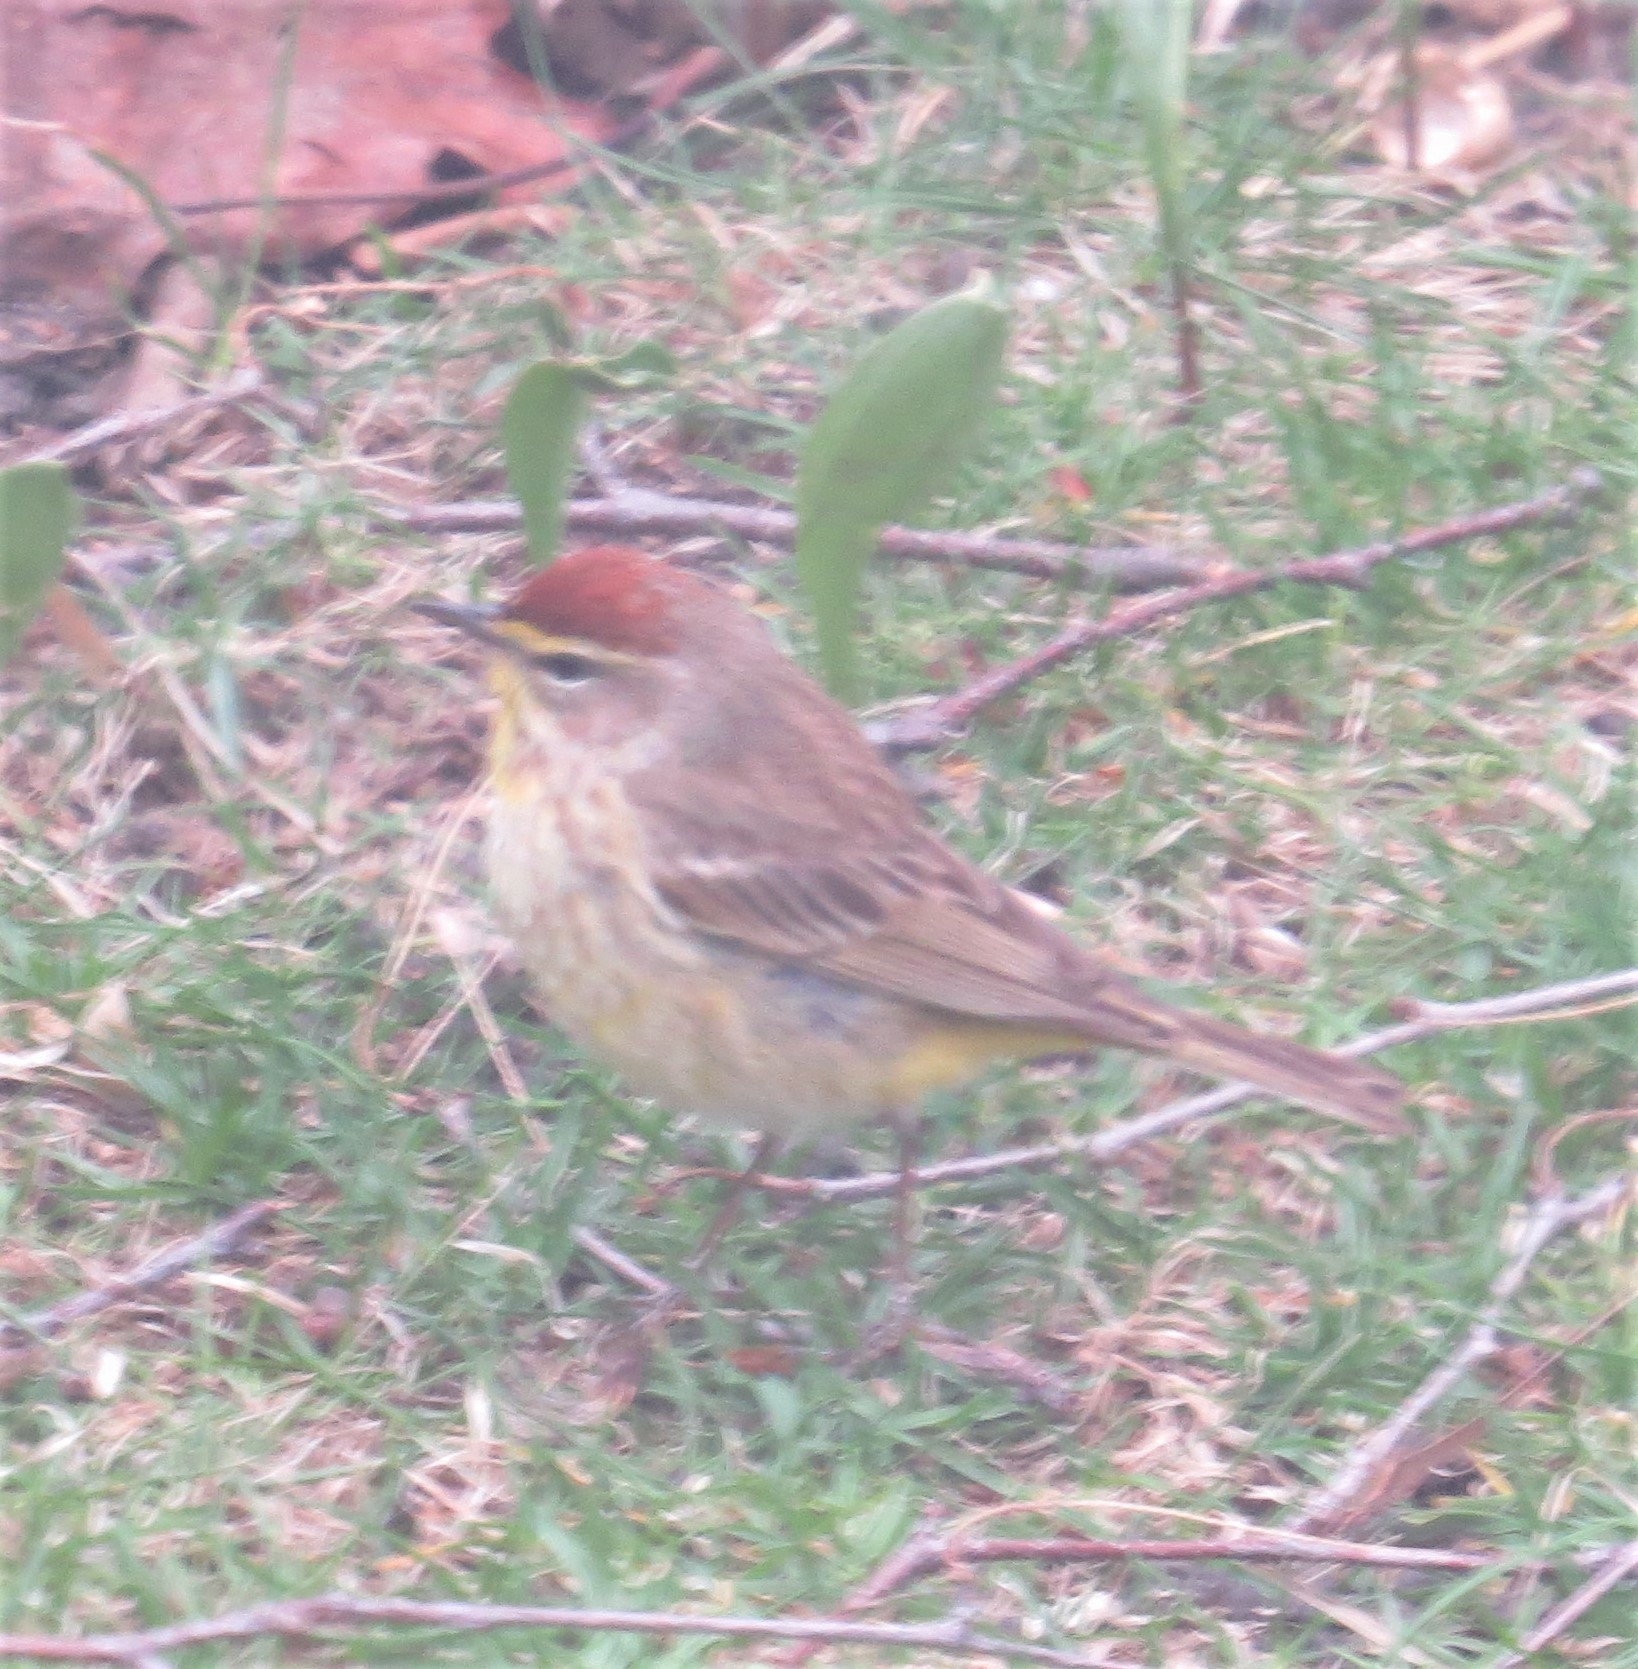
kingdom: Animalia
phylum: Chordata
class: Aves
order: Passeriformes
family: Parulidae
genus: Setophaga
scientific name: Setophaga palmarum
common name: Palm warbler
